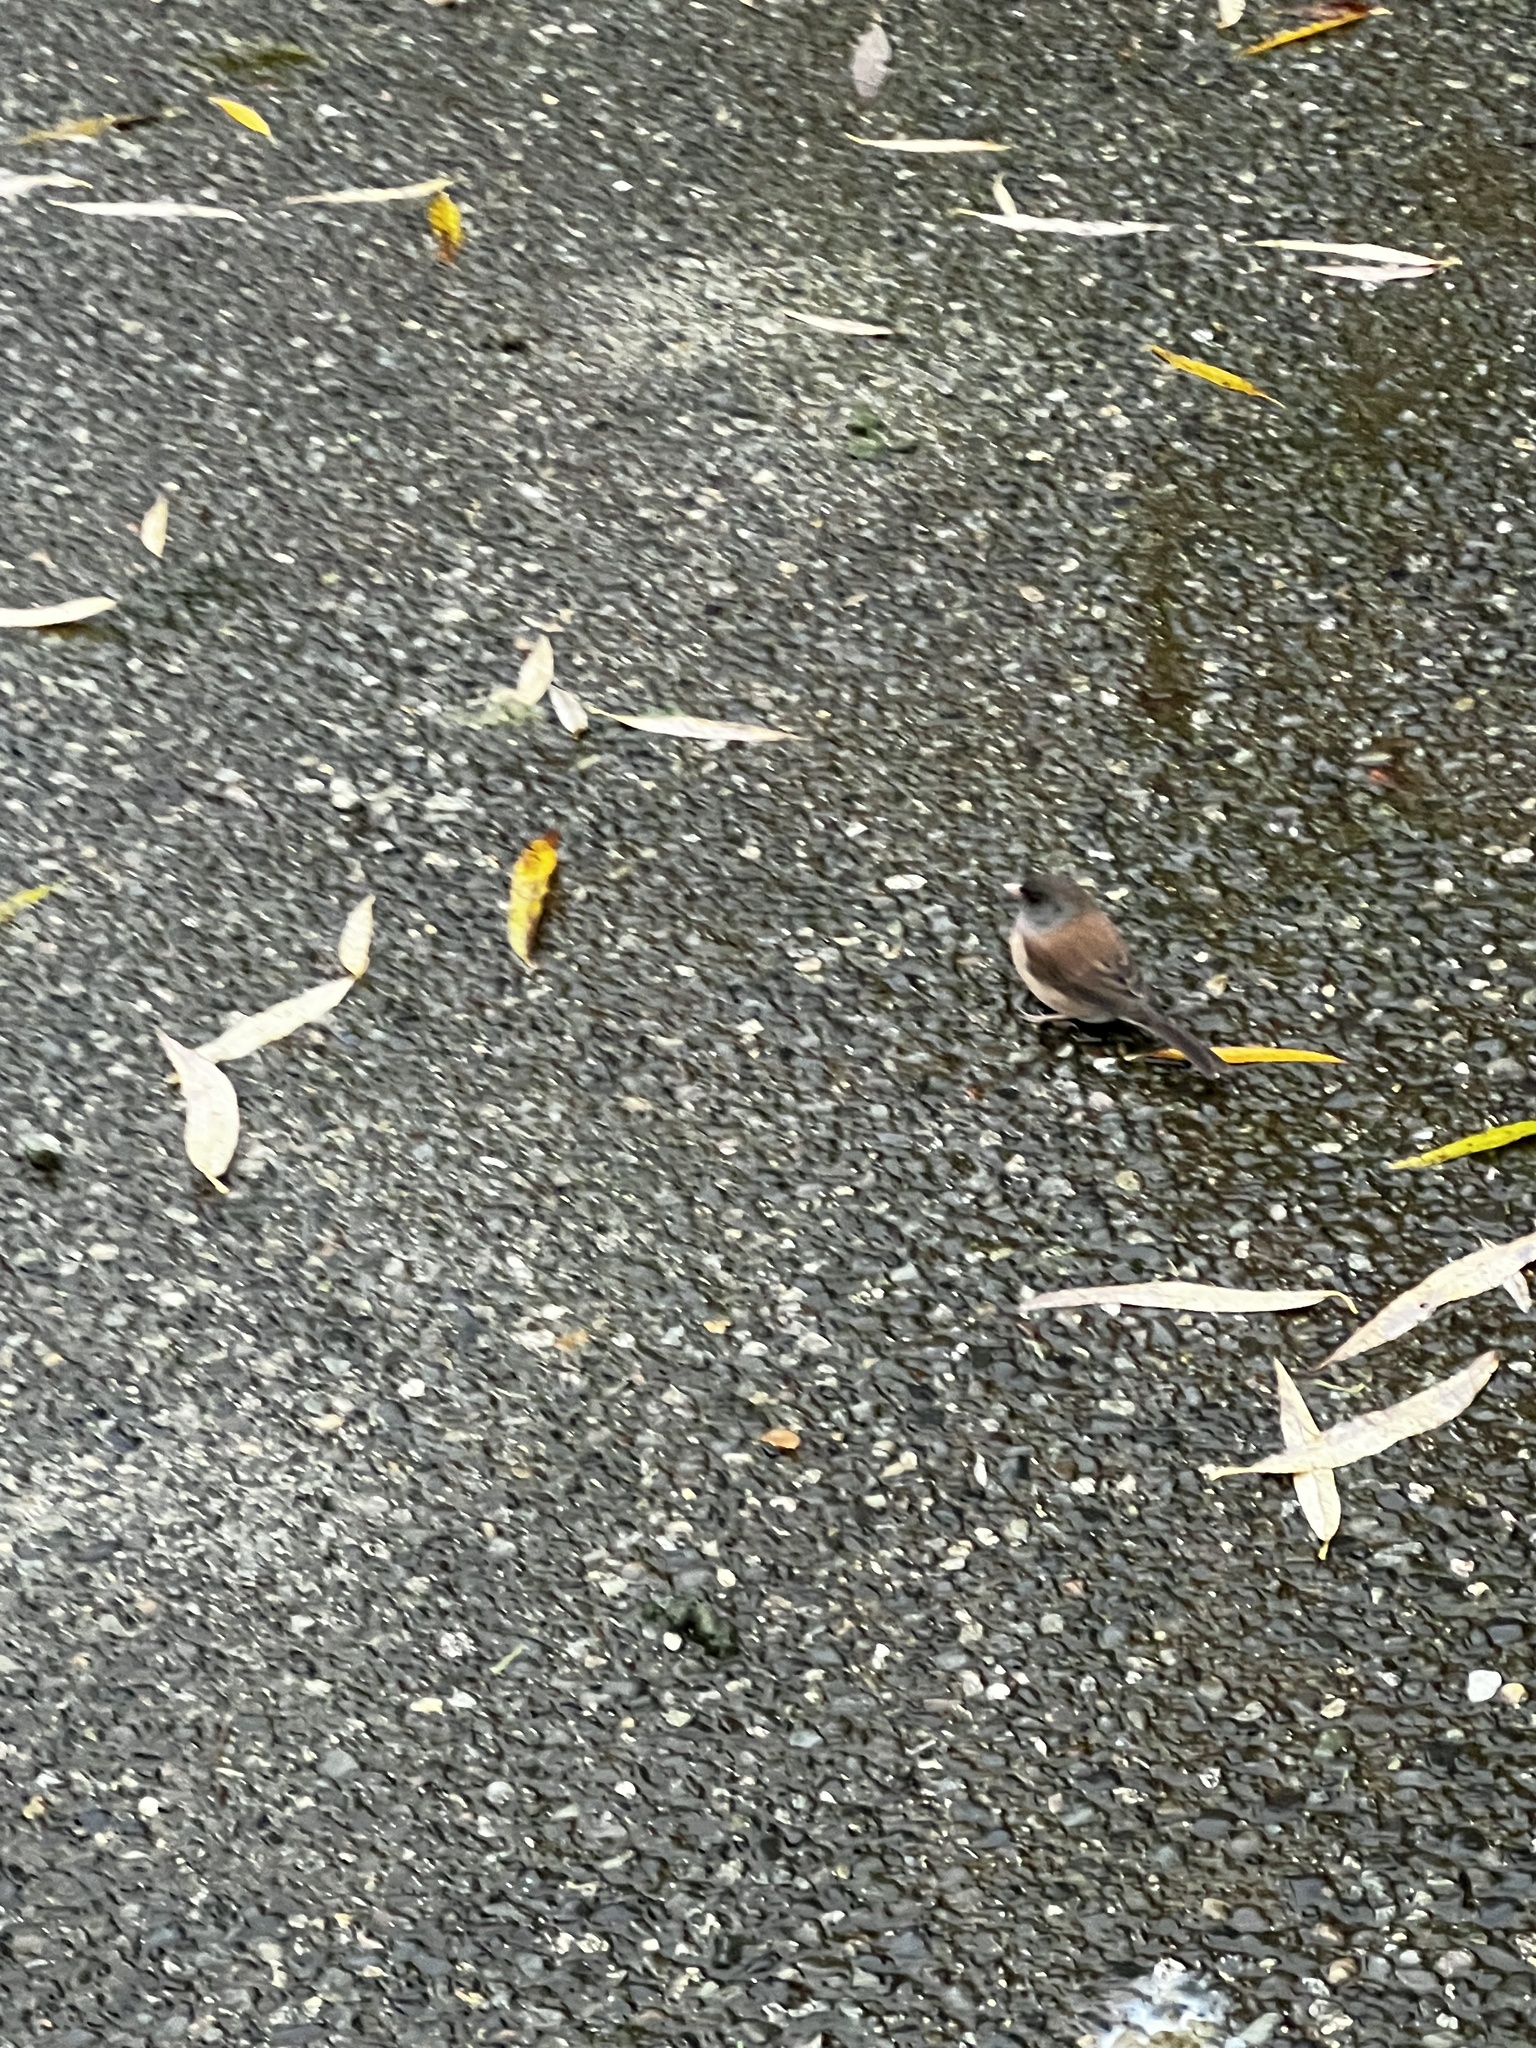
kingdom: Animalia
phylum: Chordata
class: Aves
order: Passeriformes
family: Passerellidae
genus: Junco
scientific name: Junco hyemalis
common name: Dark-eyed junco
